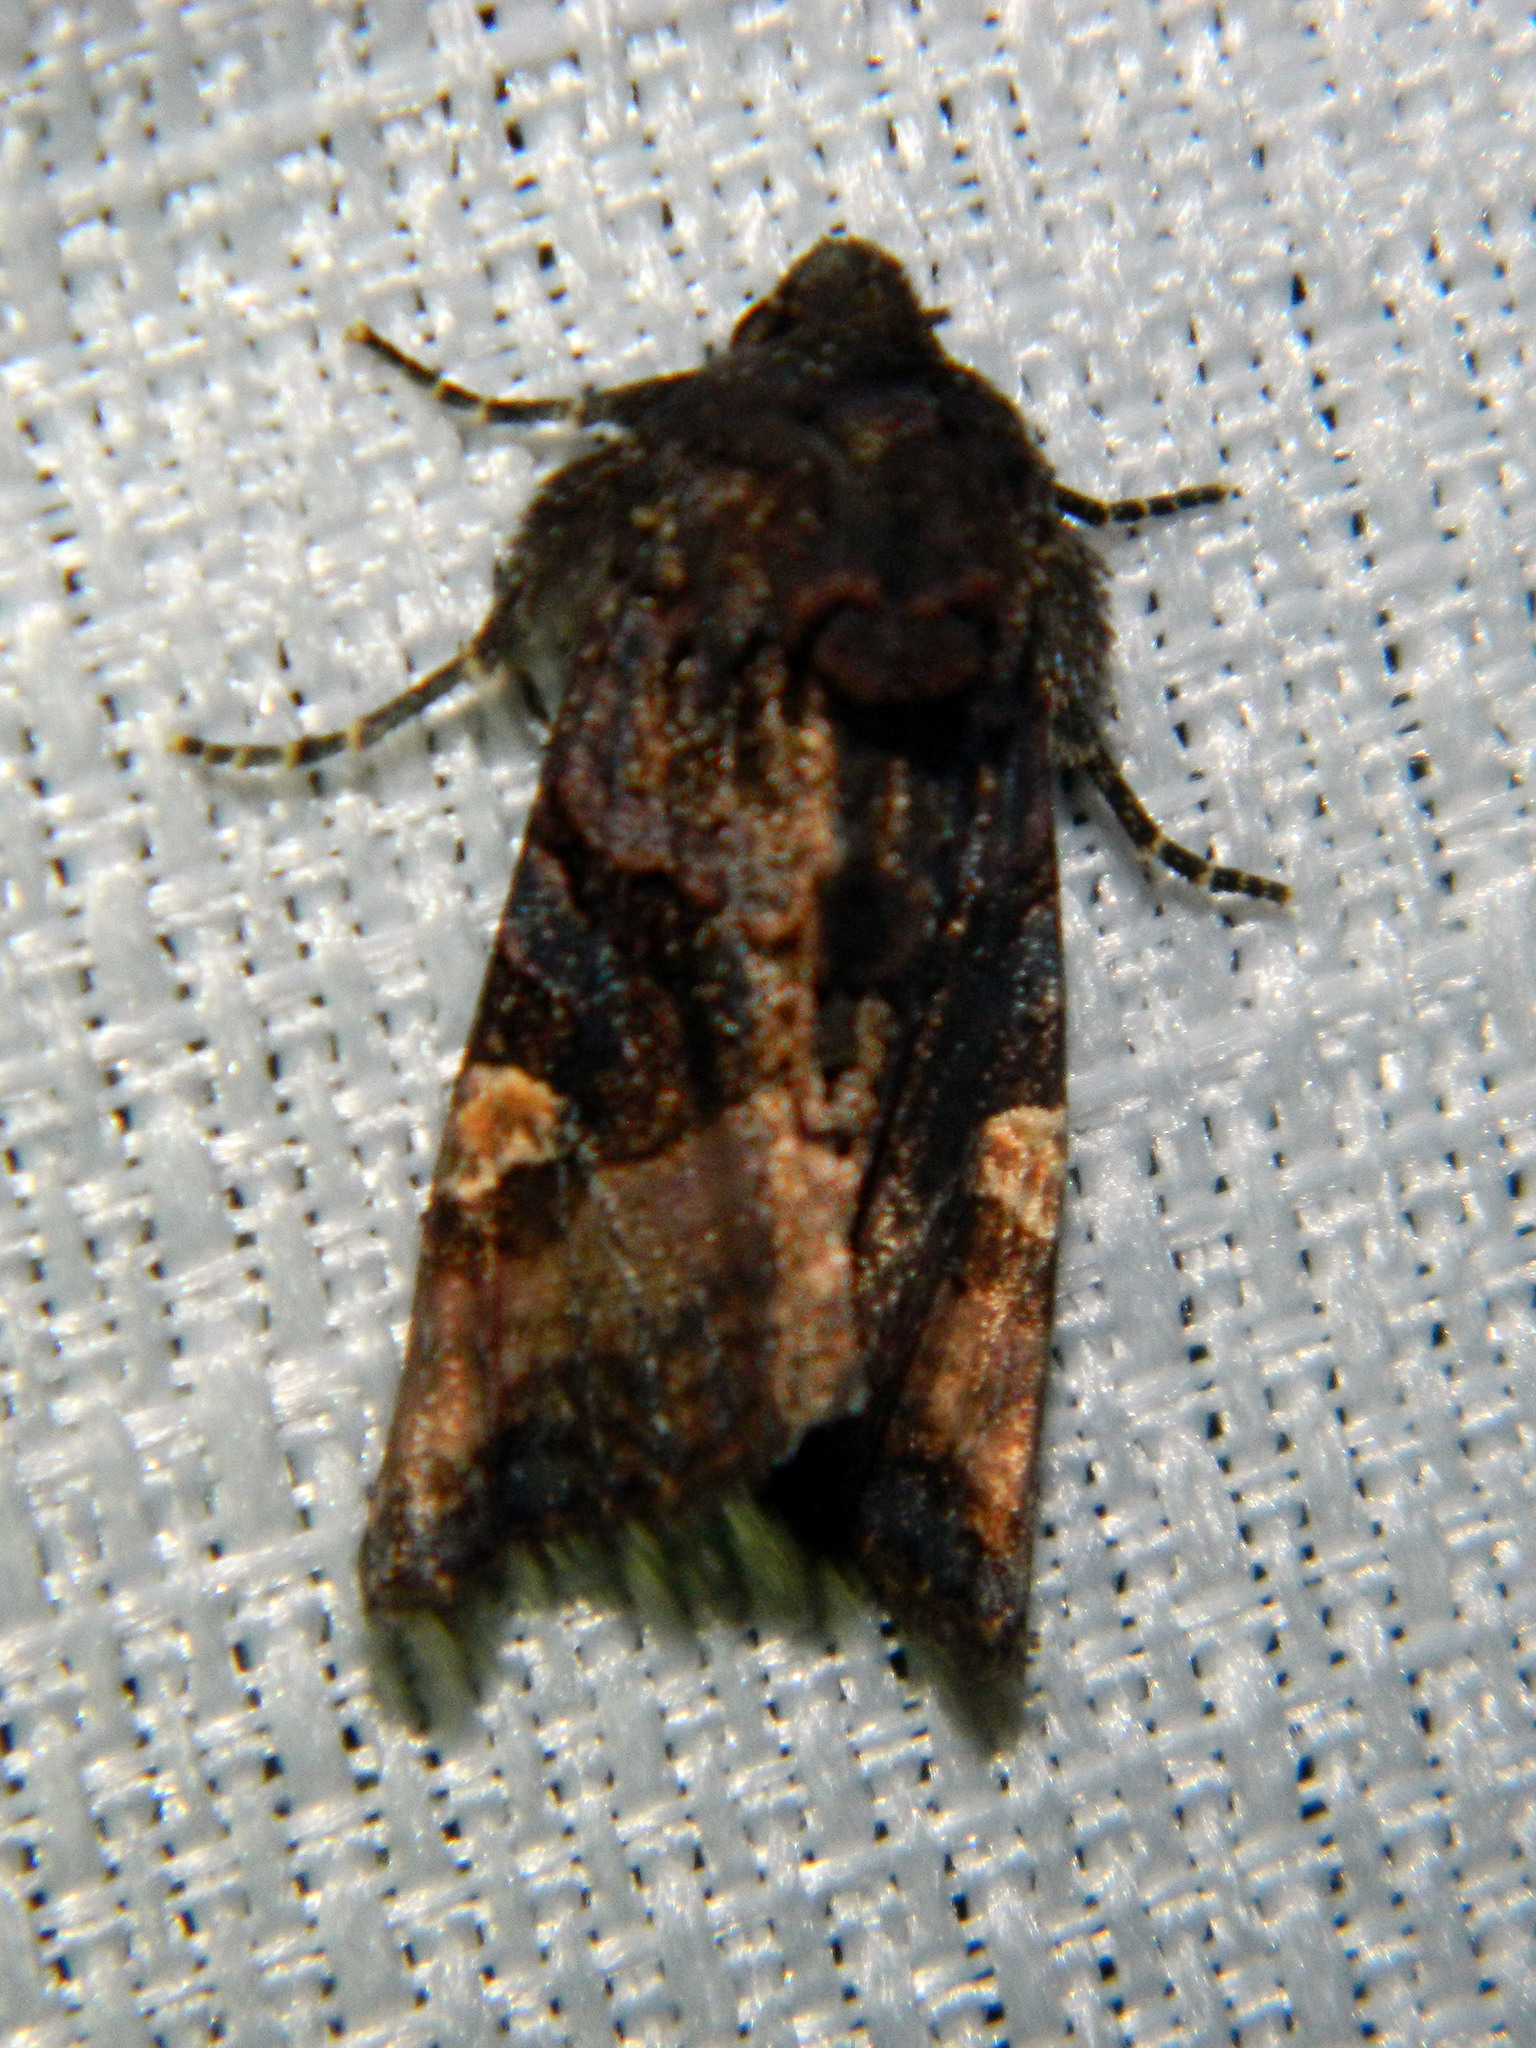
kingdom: Animalia
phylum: Arthropoda
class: Insecta
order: Lepidoptera
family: Noctuidae
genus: Euplexia
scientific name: Euplexia benesimilis
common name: American angle shades
